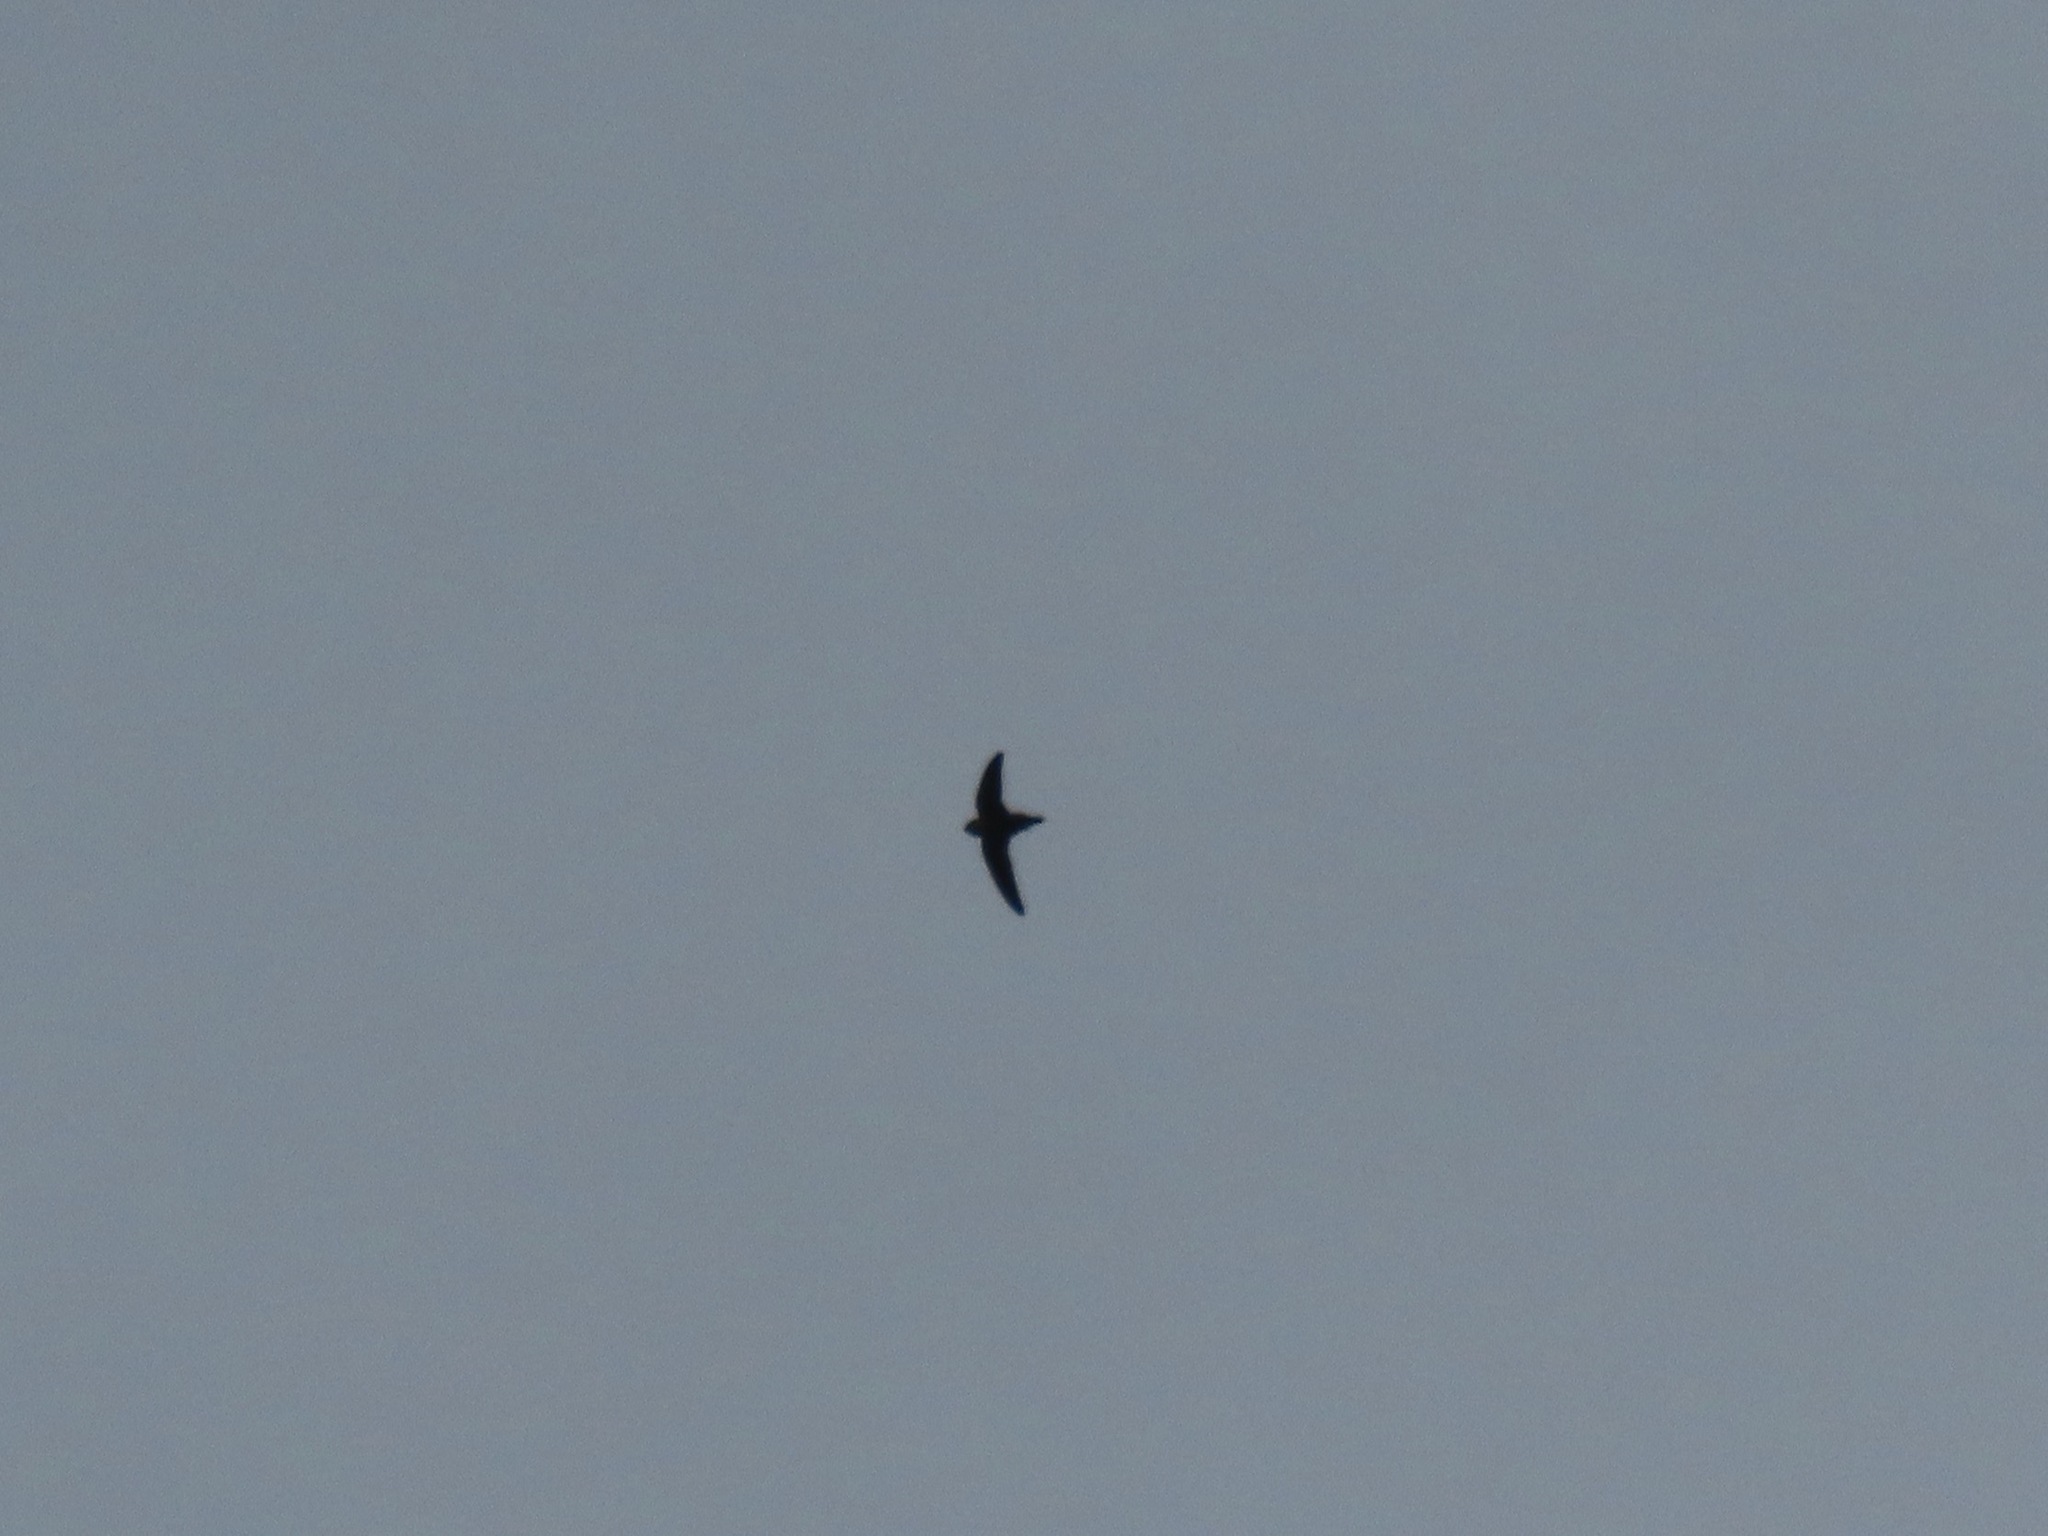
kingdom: Animalia
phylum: Chordata
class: Aves
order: Apodiformes
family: Apodidae
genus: Chaetura
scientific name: Chaetura vauxi
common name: Vaux's swift
